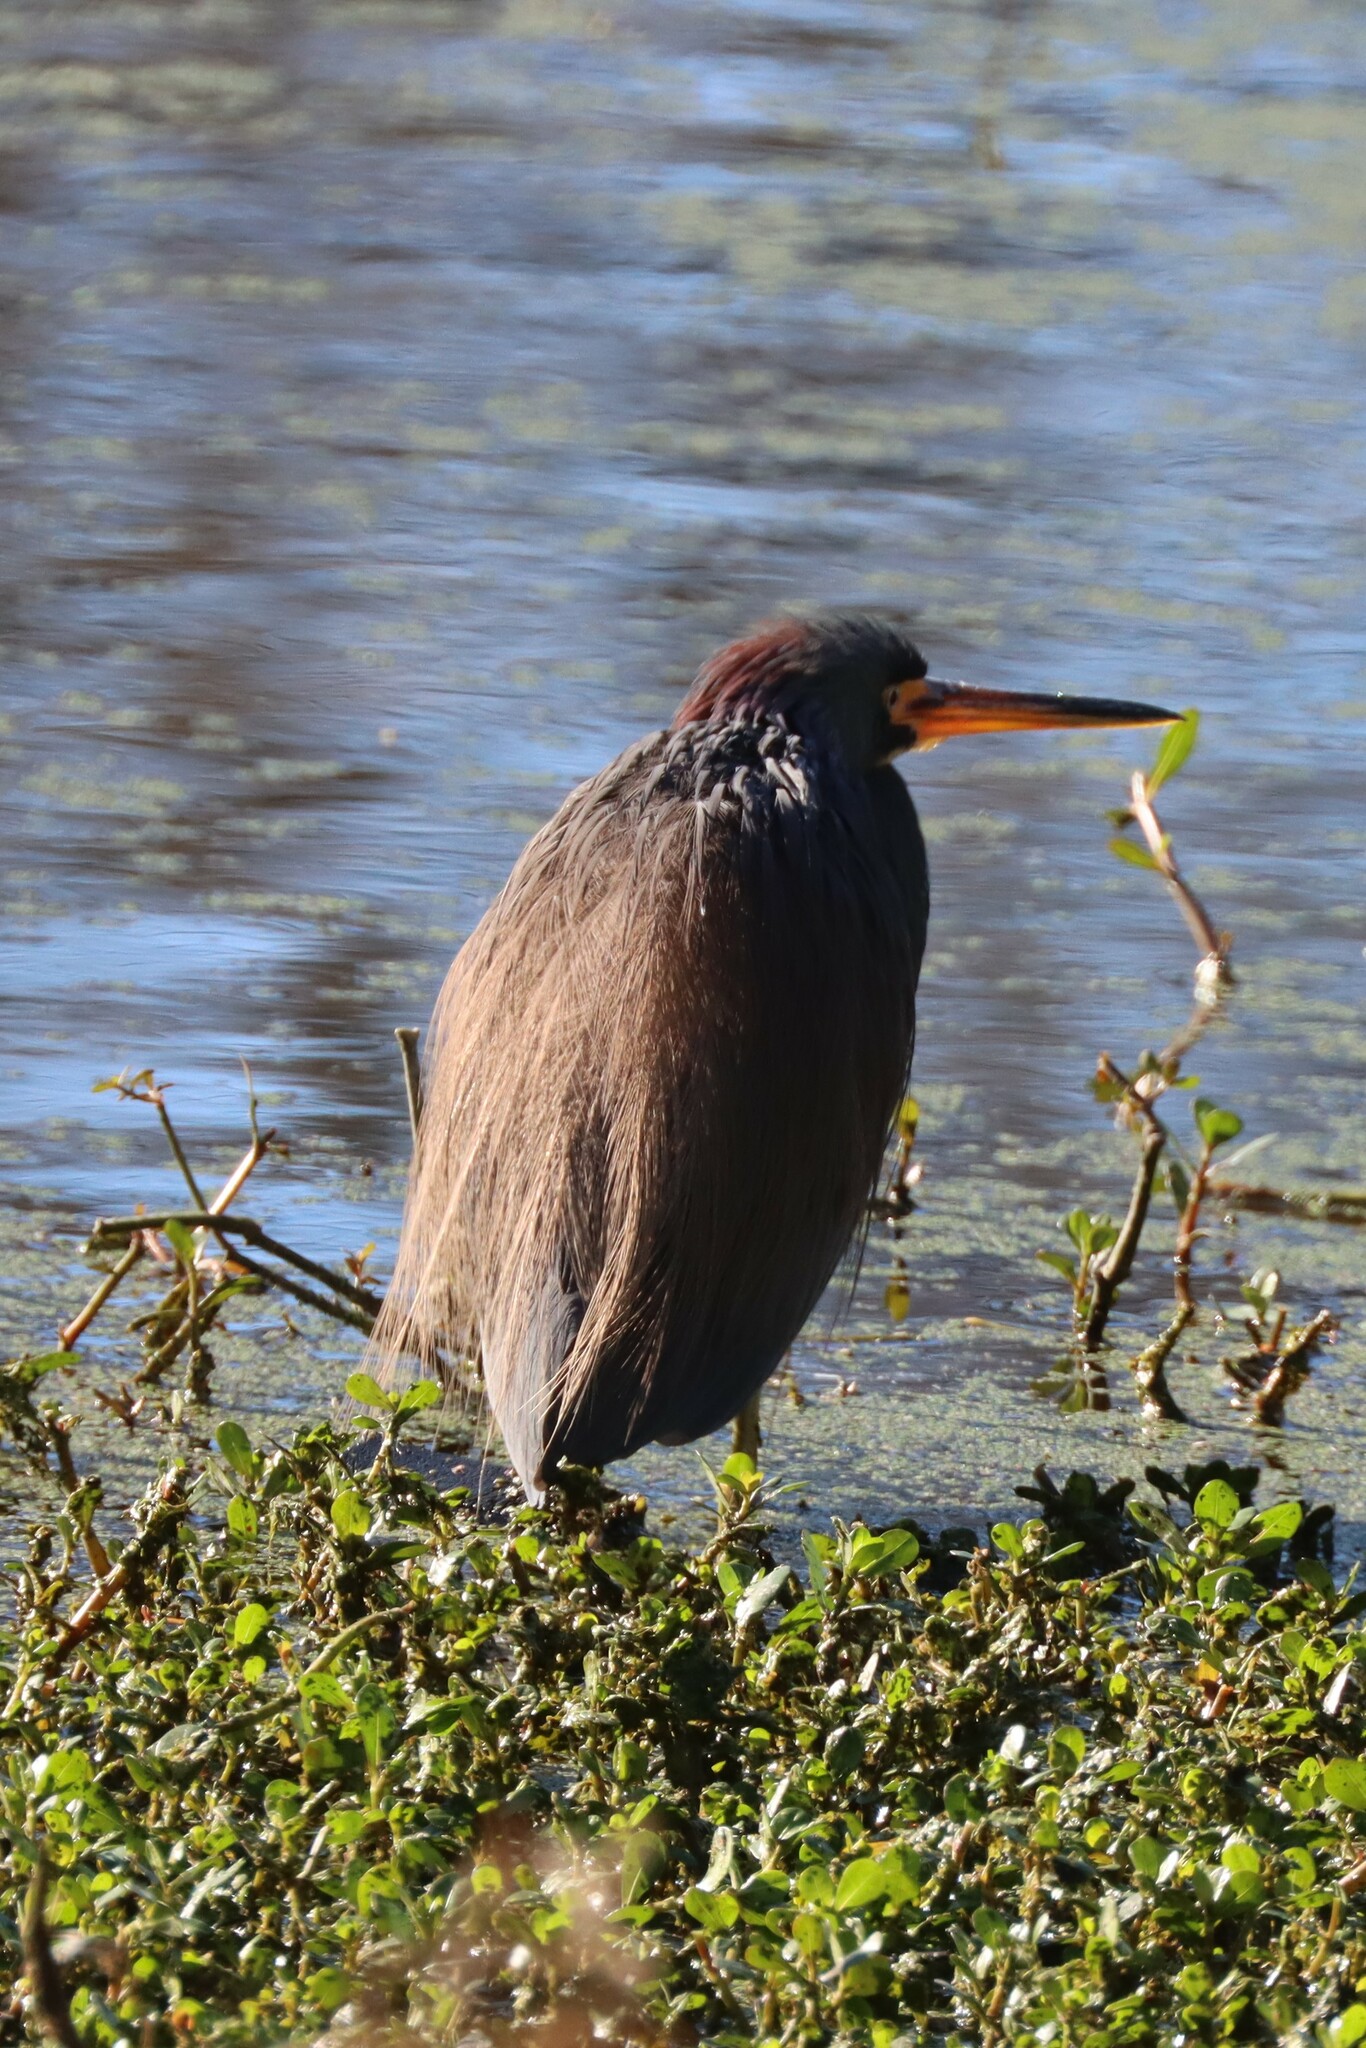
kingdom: Animalia
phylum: Chordata
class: Aves
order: Pelecaniformes
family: Ardeidae
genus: Egretta
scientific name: Egretta tricolor
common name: Tricolored heron
